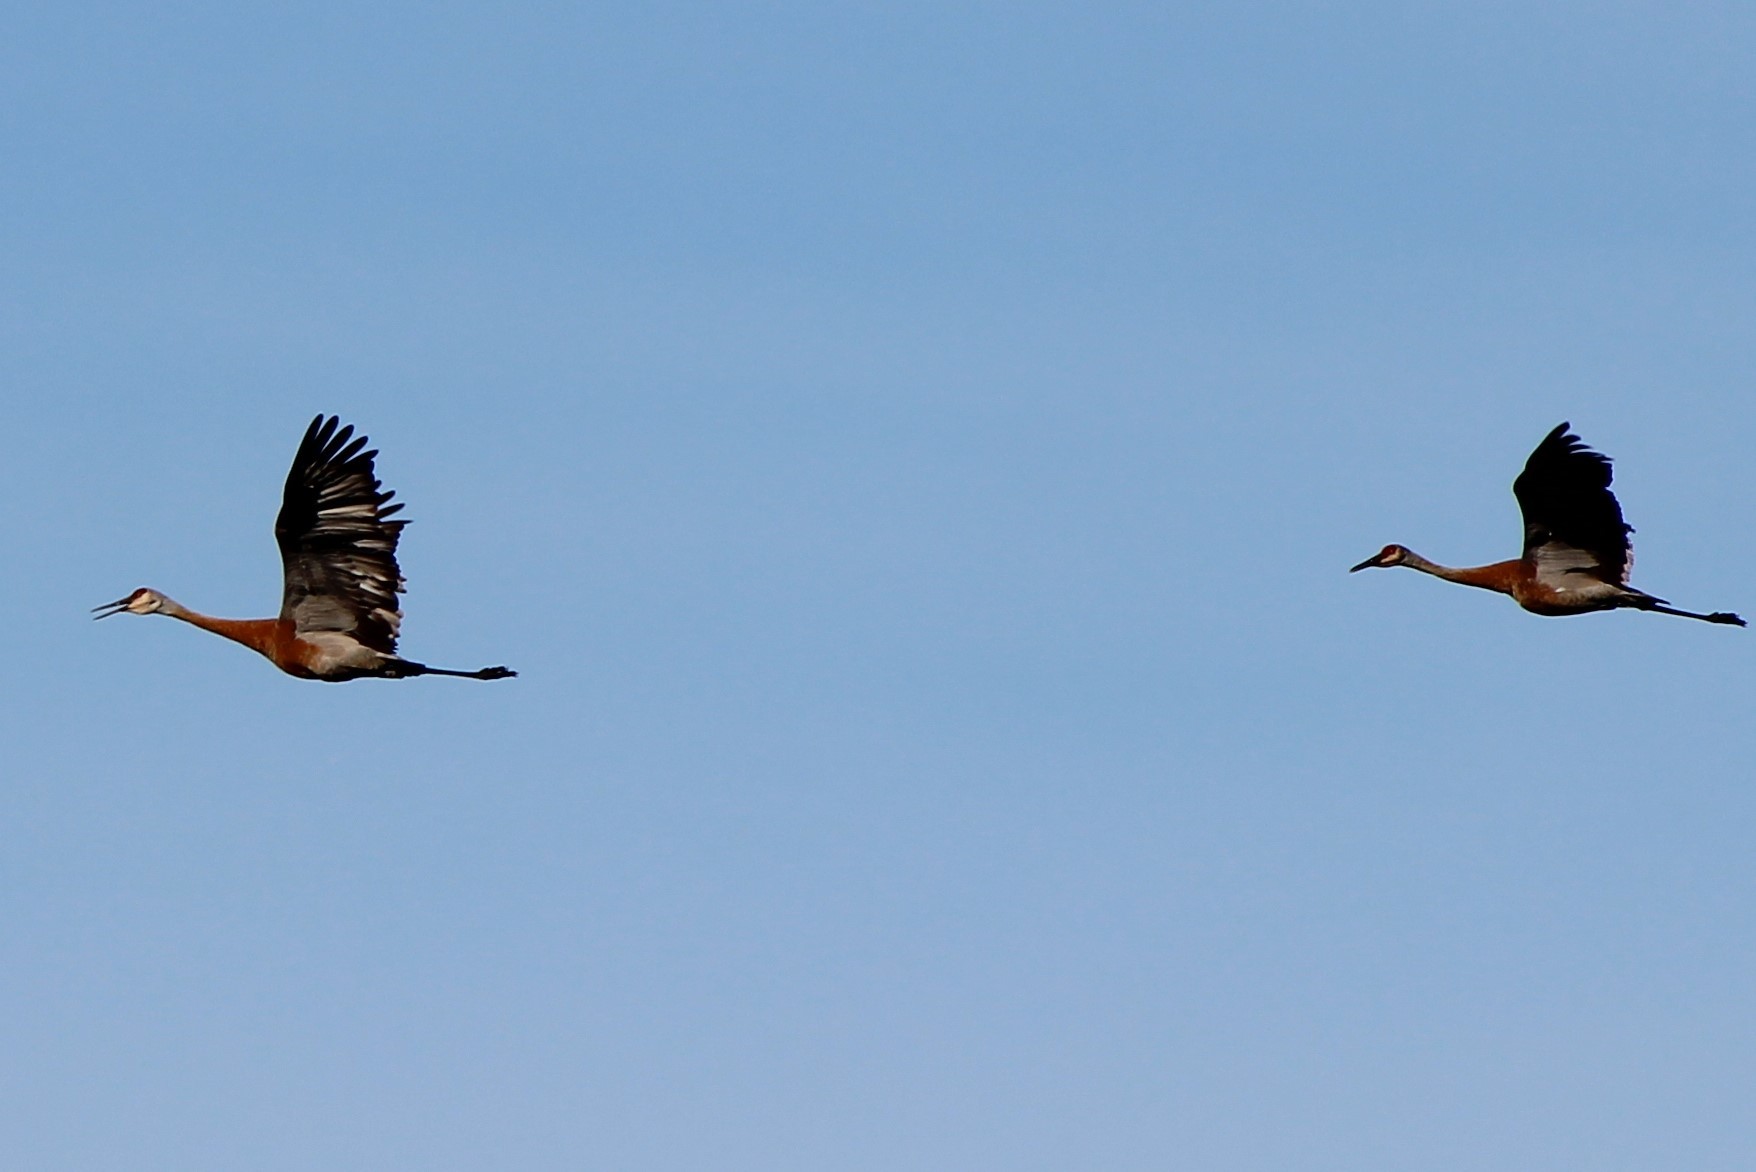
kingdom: Animalia
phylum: Chordata
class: Aves
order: Gruiformes
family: Gruidae
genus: Grus
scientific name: Grus canadensis
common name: Sandhill crane
